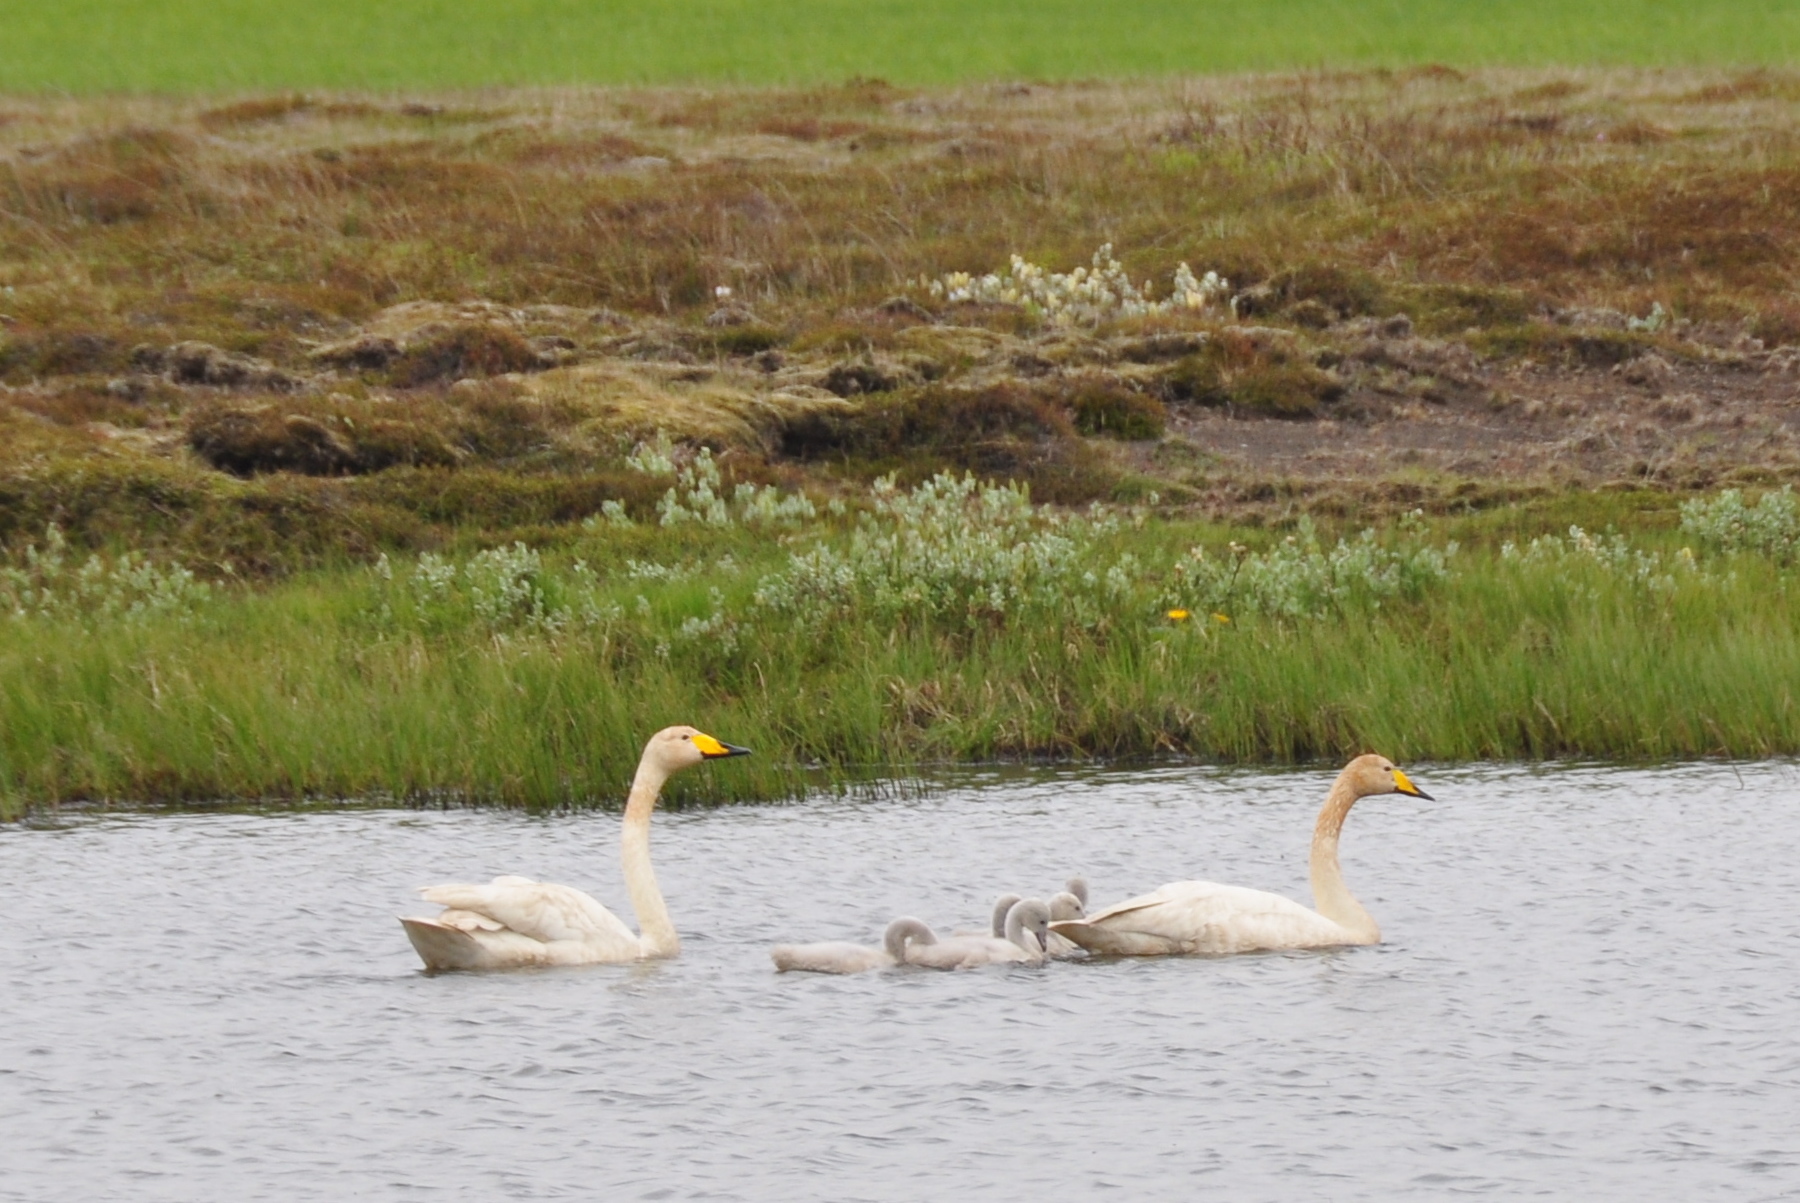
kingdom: Animalia
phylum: Chordata
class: Aves
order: Anseriformes
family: Anatidae
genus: Cygnus
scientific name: Cygnus cygnus
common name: Whooper swan
